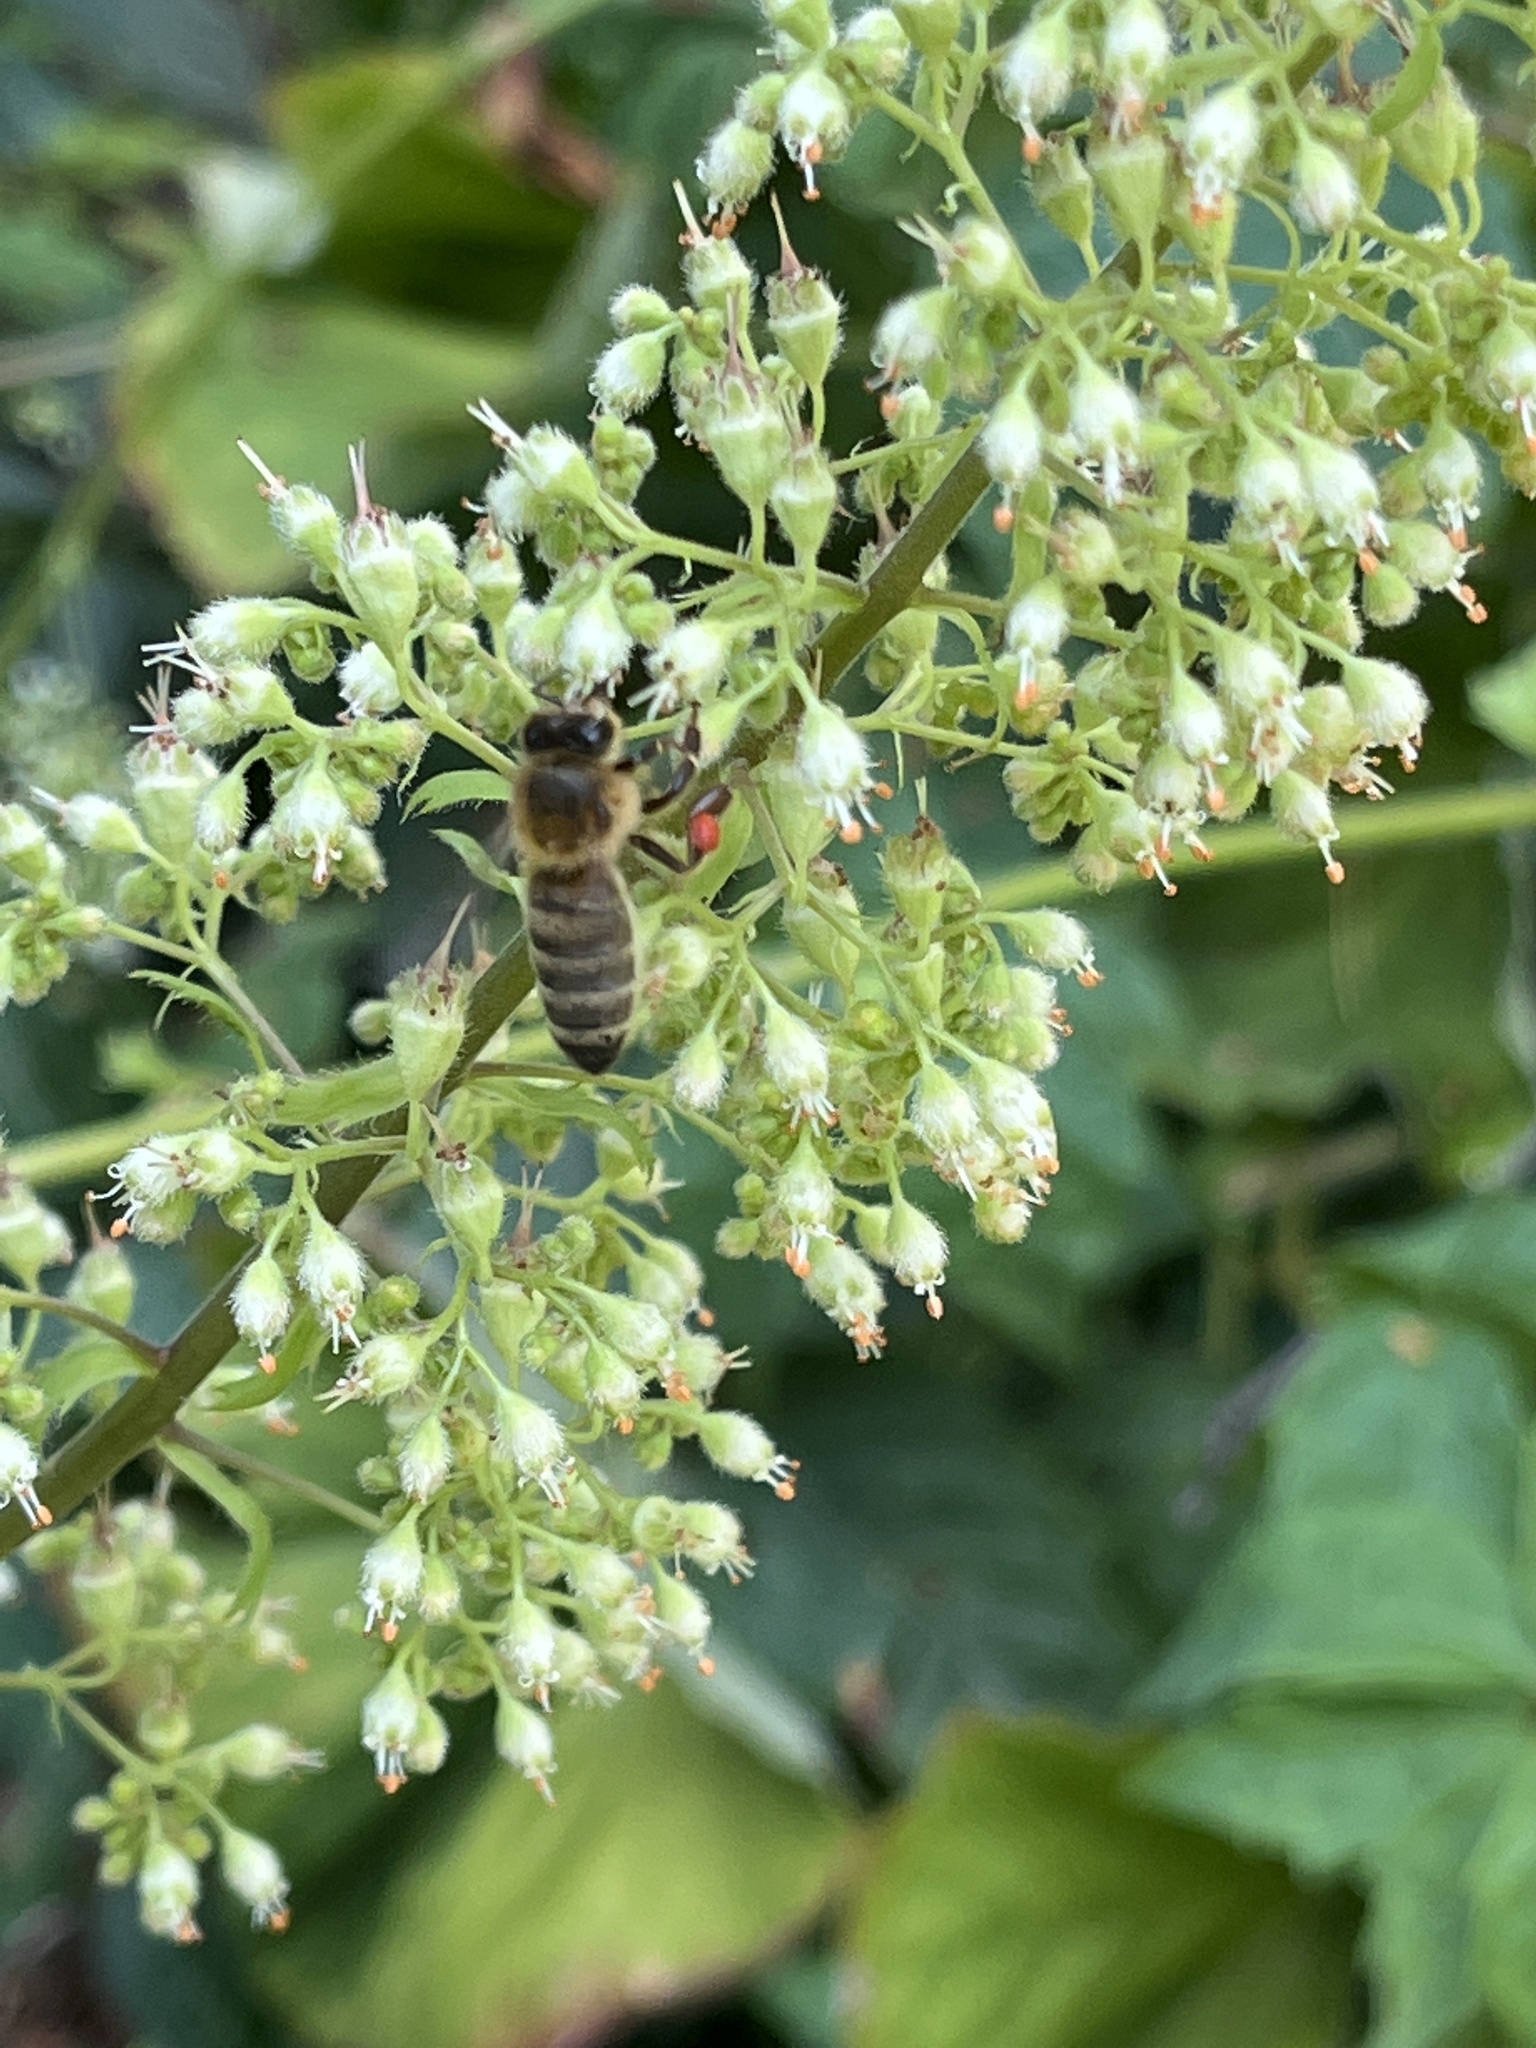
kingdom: Animalia
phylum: Arthropoda
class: Insecta
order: Hymenoptera
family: Apidae
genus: Apis
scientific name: Apis mellifera
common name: Honey bee
